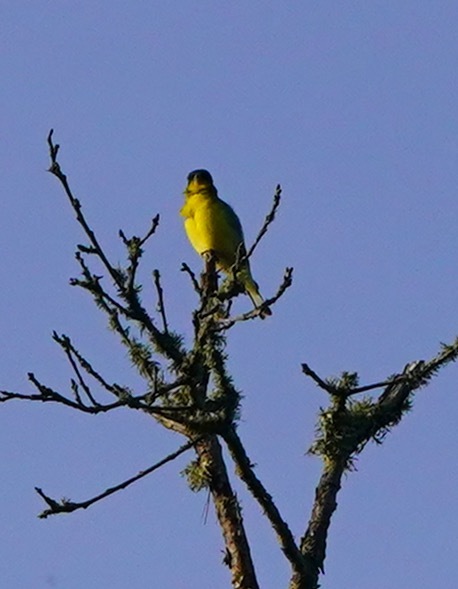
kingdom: Animalia
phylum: Chordata
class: Aves
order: Passeriformes
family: Fringillidae
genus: Spinus
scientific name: Spinus psaltria
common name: Lesser goldfinch
